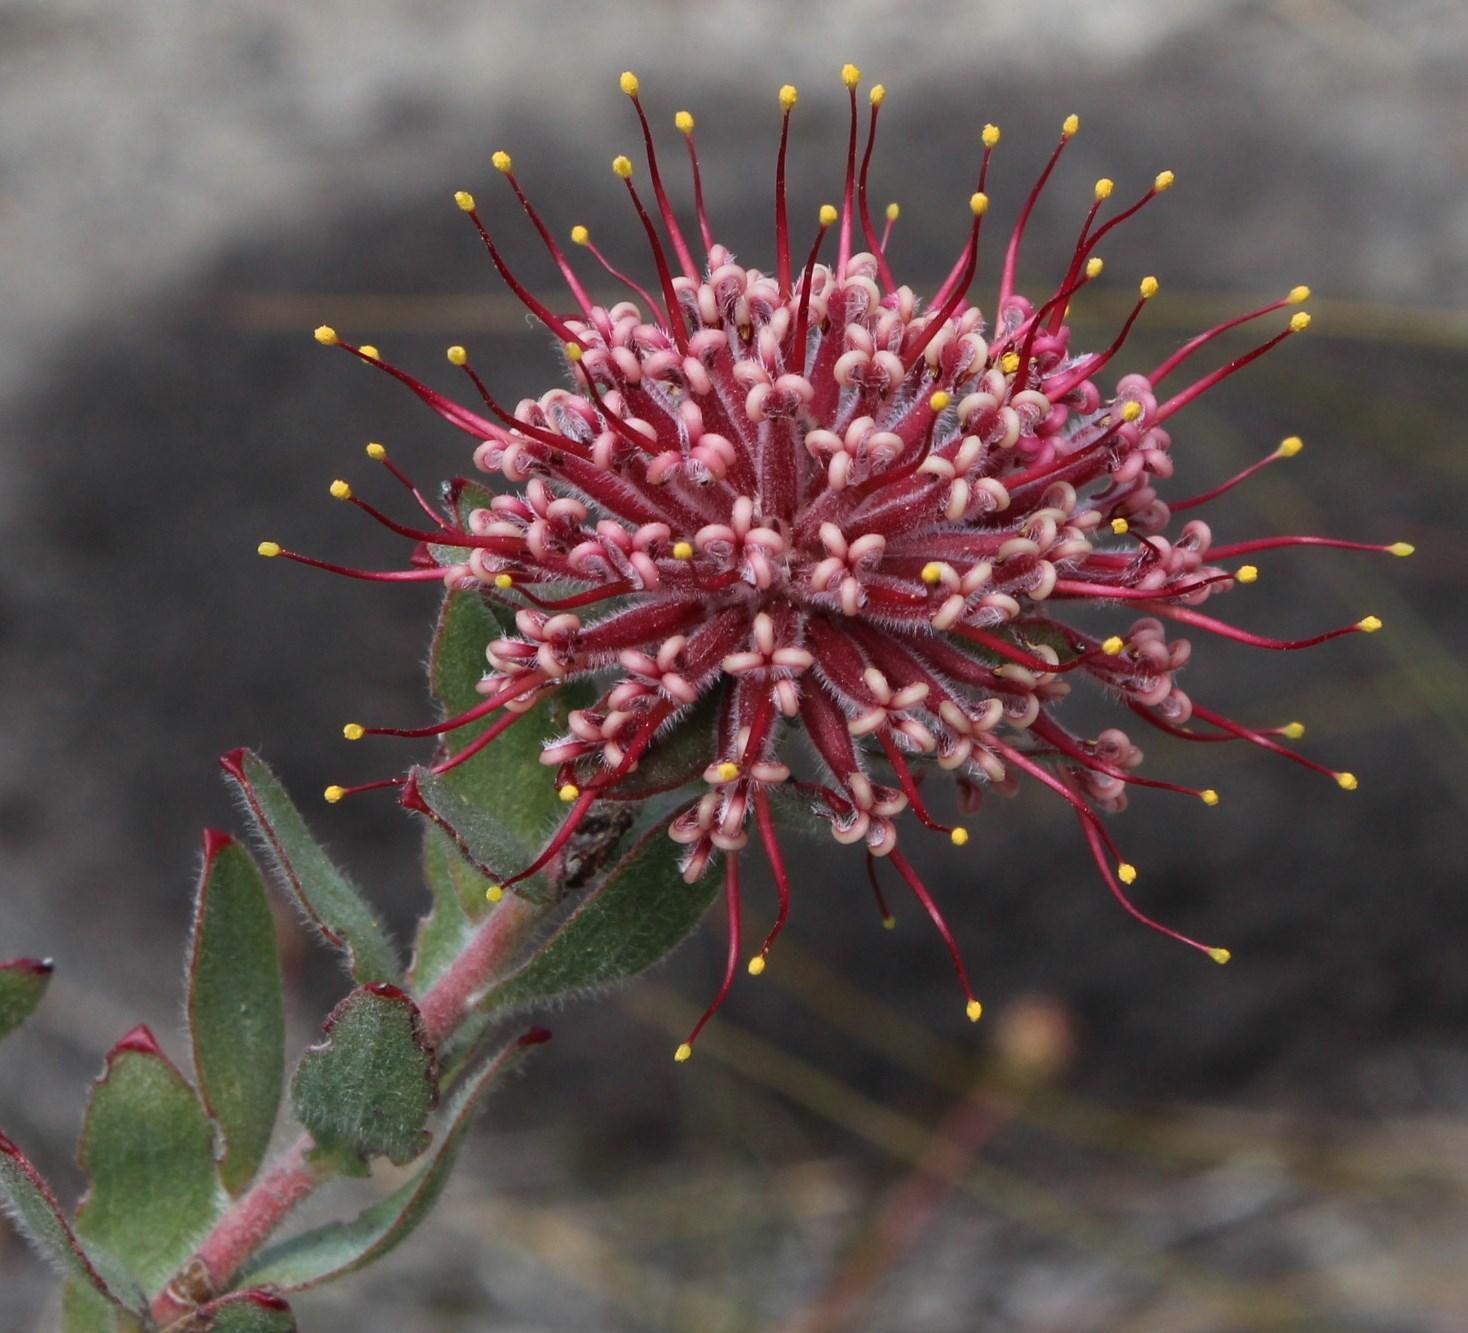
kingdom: Plantae
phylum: Tracheophyta
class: Magnoliopsida
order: Proteales
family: Proteaceae
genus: Leucospermum
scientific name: Leucospermum calligerum
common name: Arid pincushion
